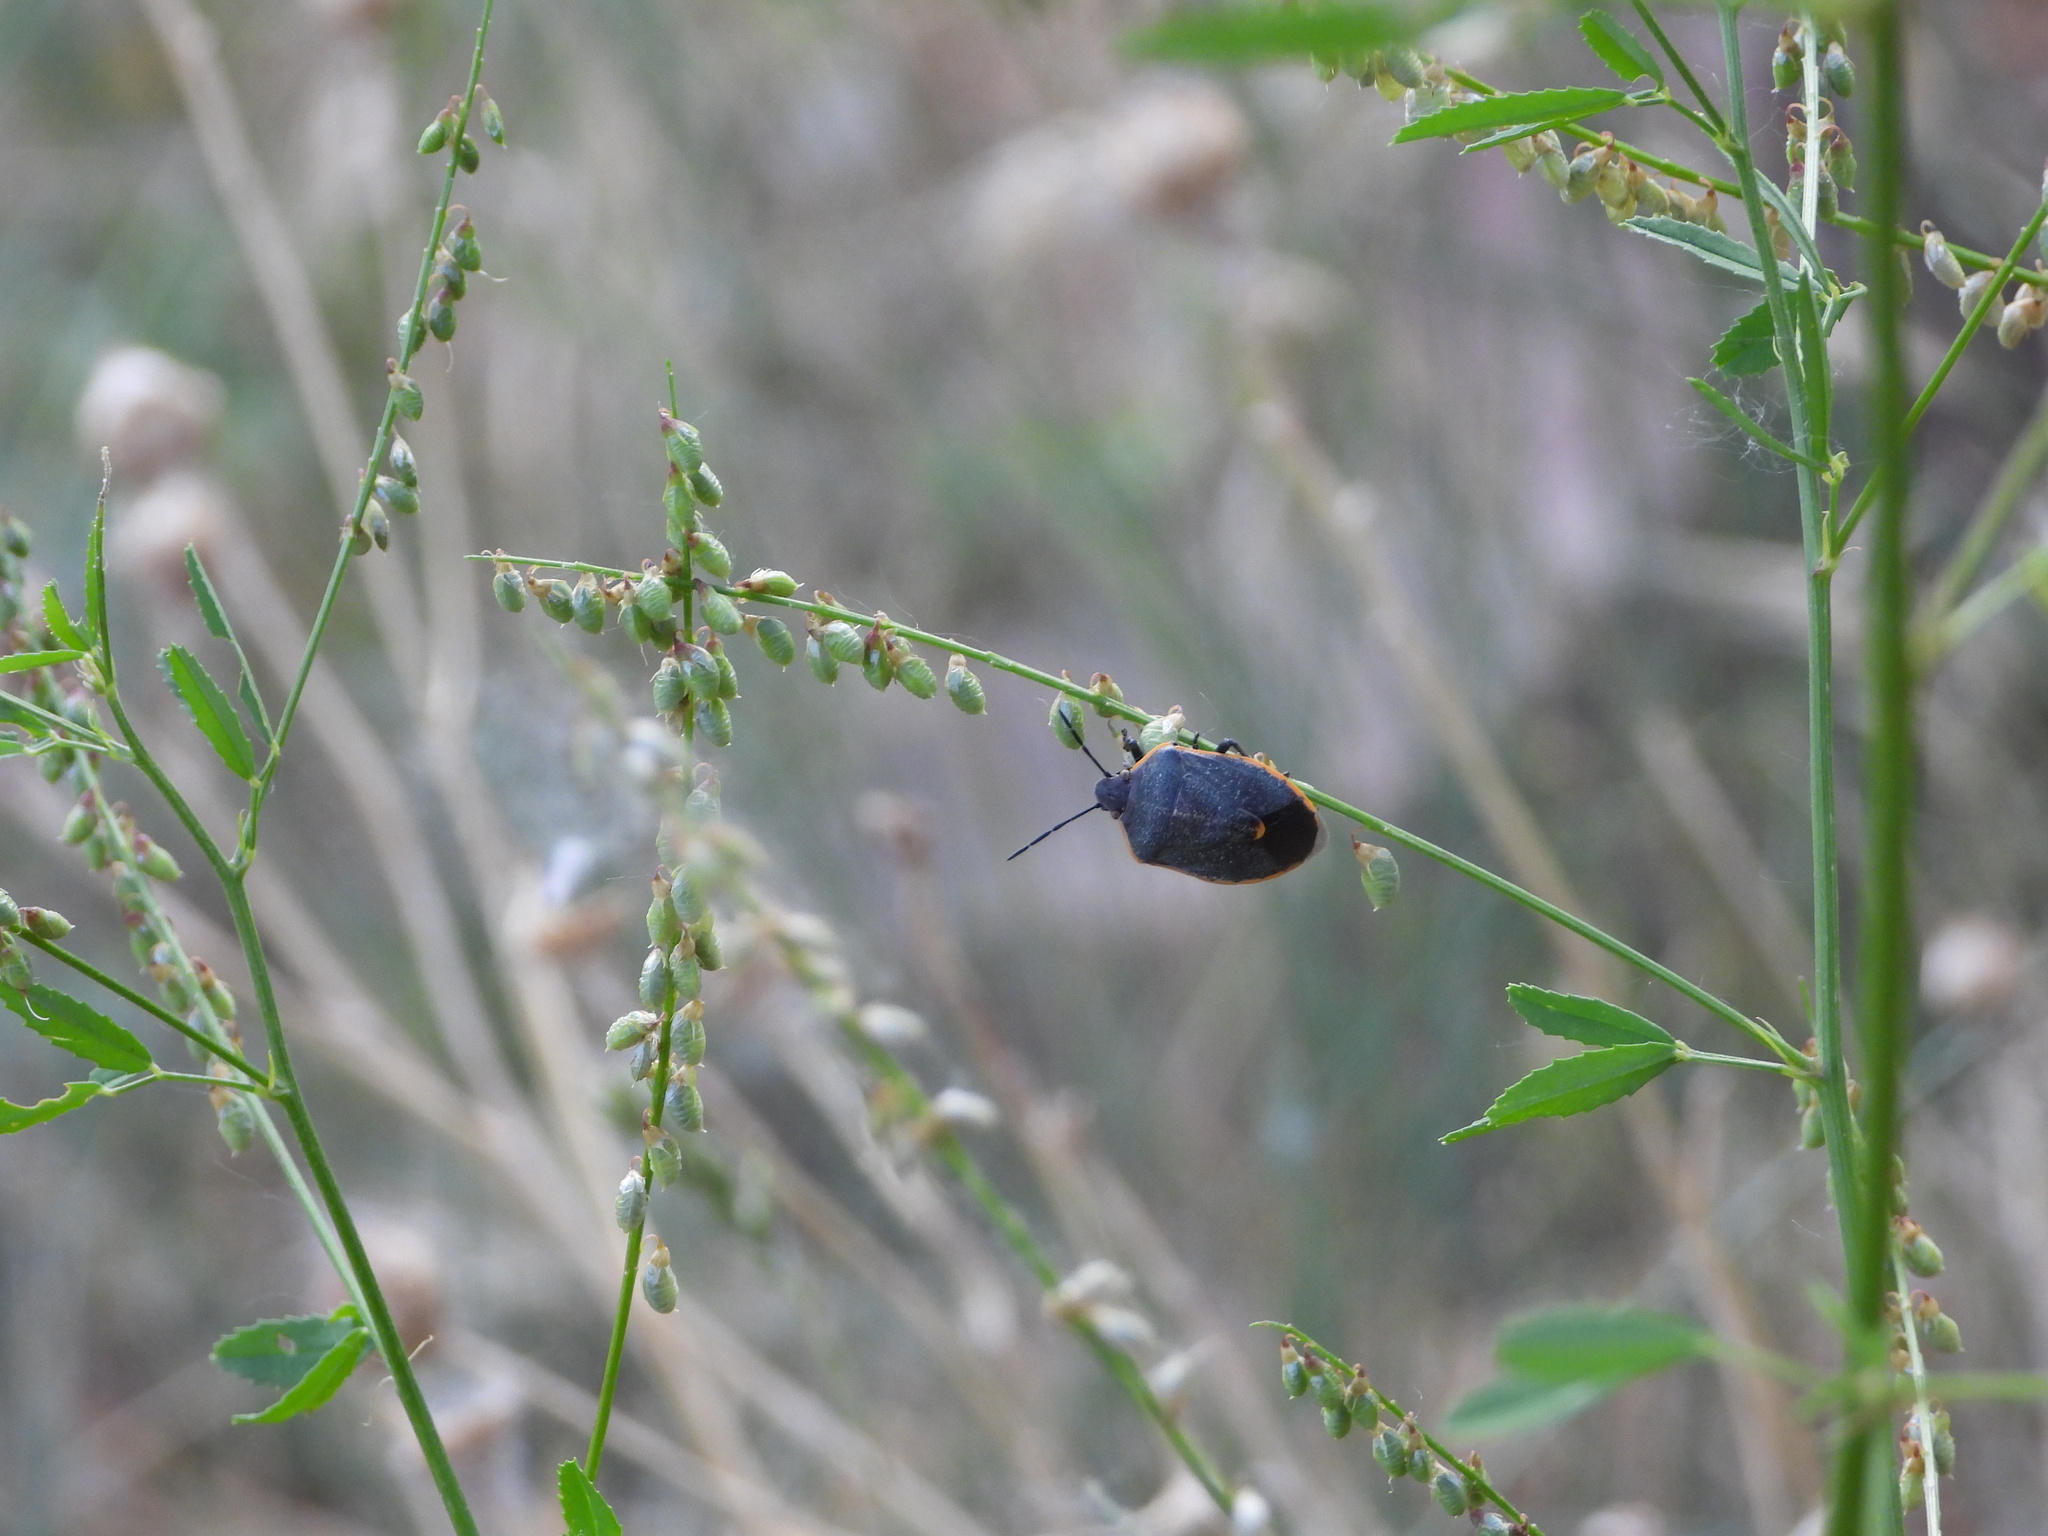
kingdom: Animalia
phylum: Arthropoda
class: Insecta
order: Hemiptera
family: Pentatomidae
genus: Chlorochroa
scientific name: Chlorochroa ligata
